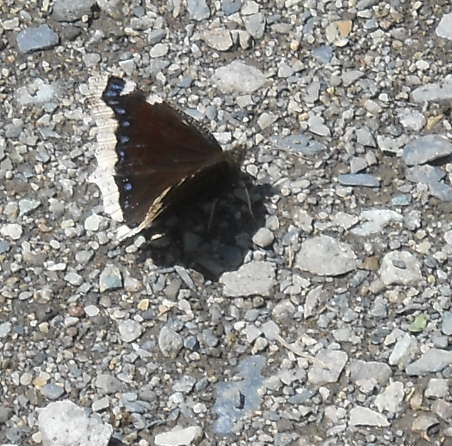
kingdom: Animalia
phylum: Arthropoda
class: Insecta
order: Lepidoptera
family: Nymphalidae
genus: Nymphalis
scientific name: Nymphalis antiopa
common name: Camberwell beauty
